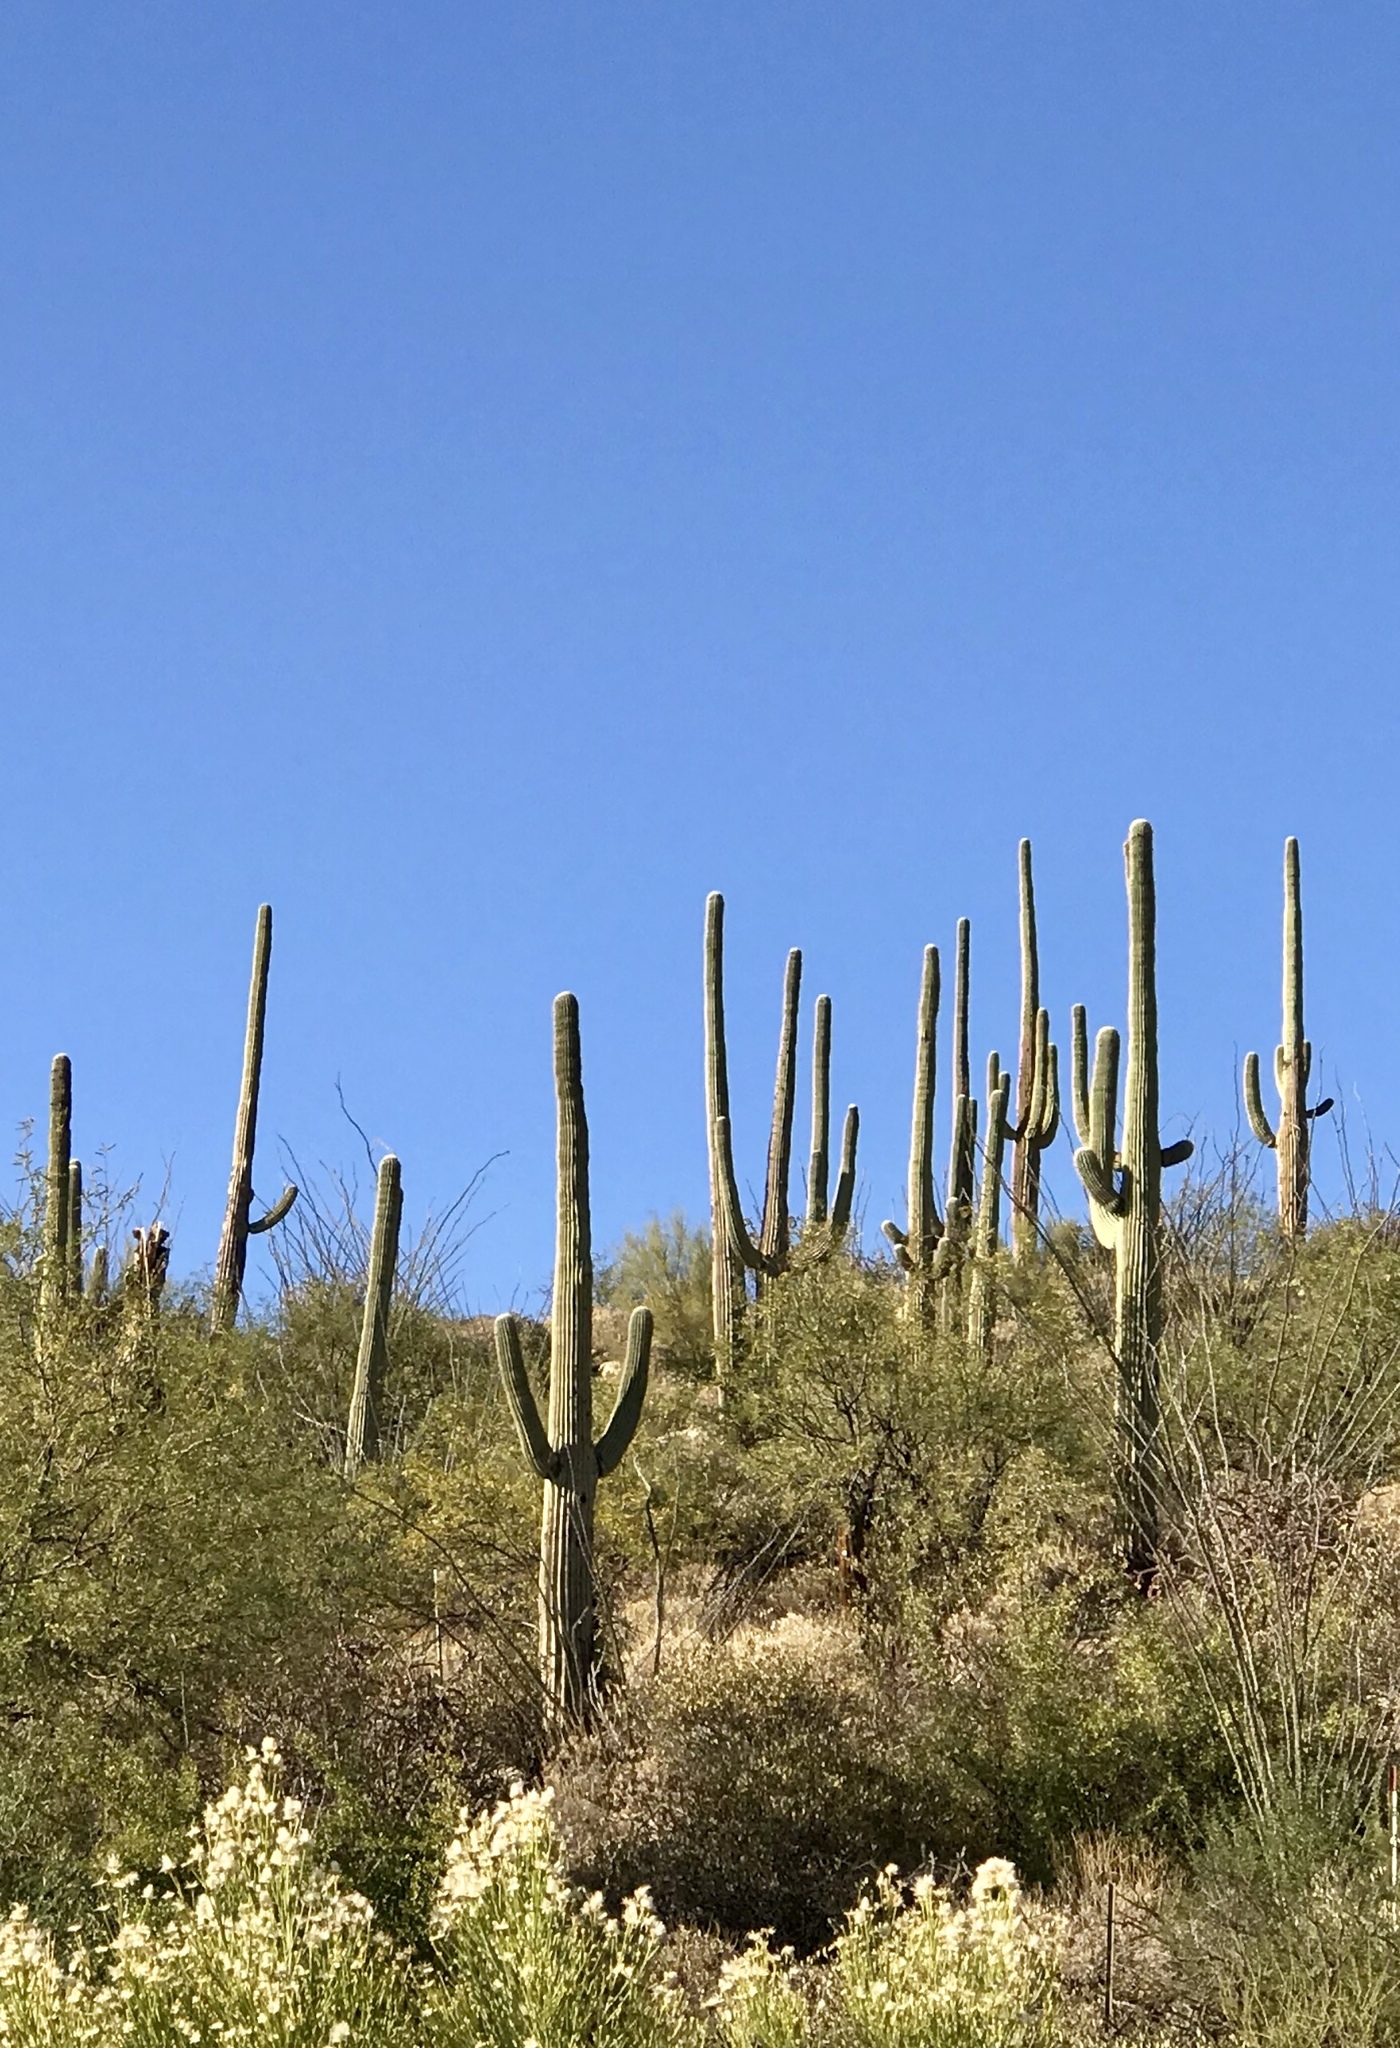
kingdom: Plantae
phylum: Tracheophyta
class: Magnoliopsida
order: Caryophyllales
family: Cactaceae
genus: Carnegiea
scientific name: Carnegiea gigantea
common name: Saguaro
